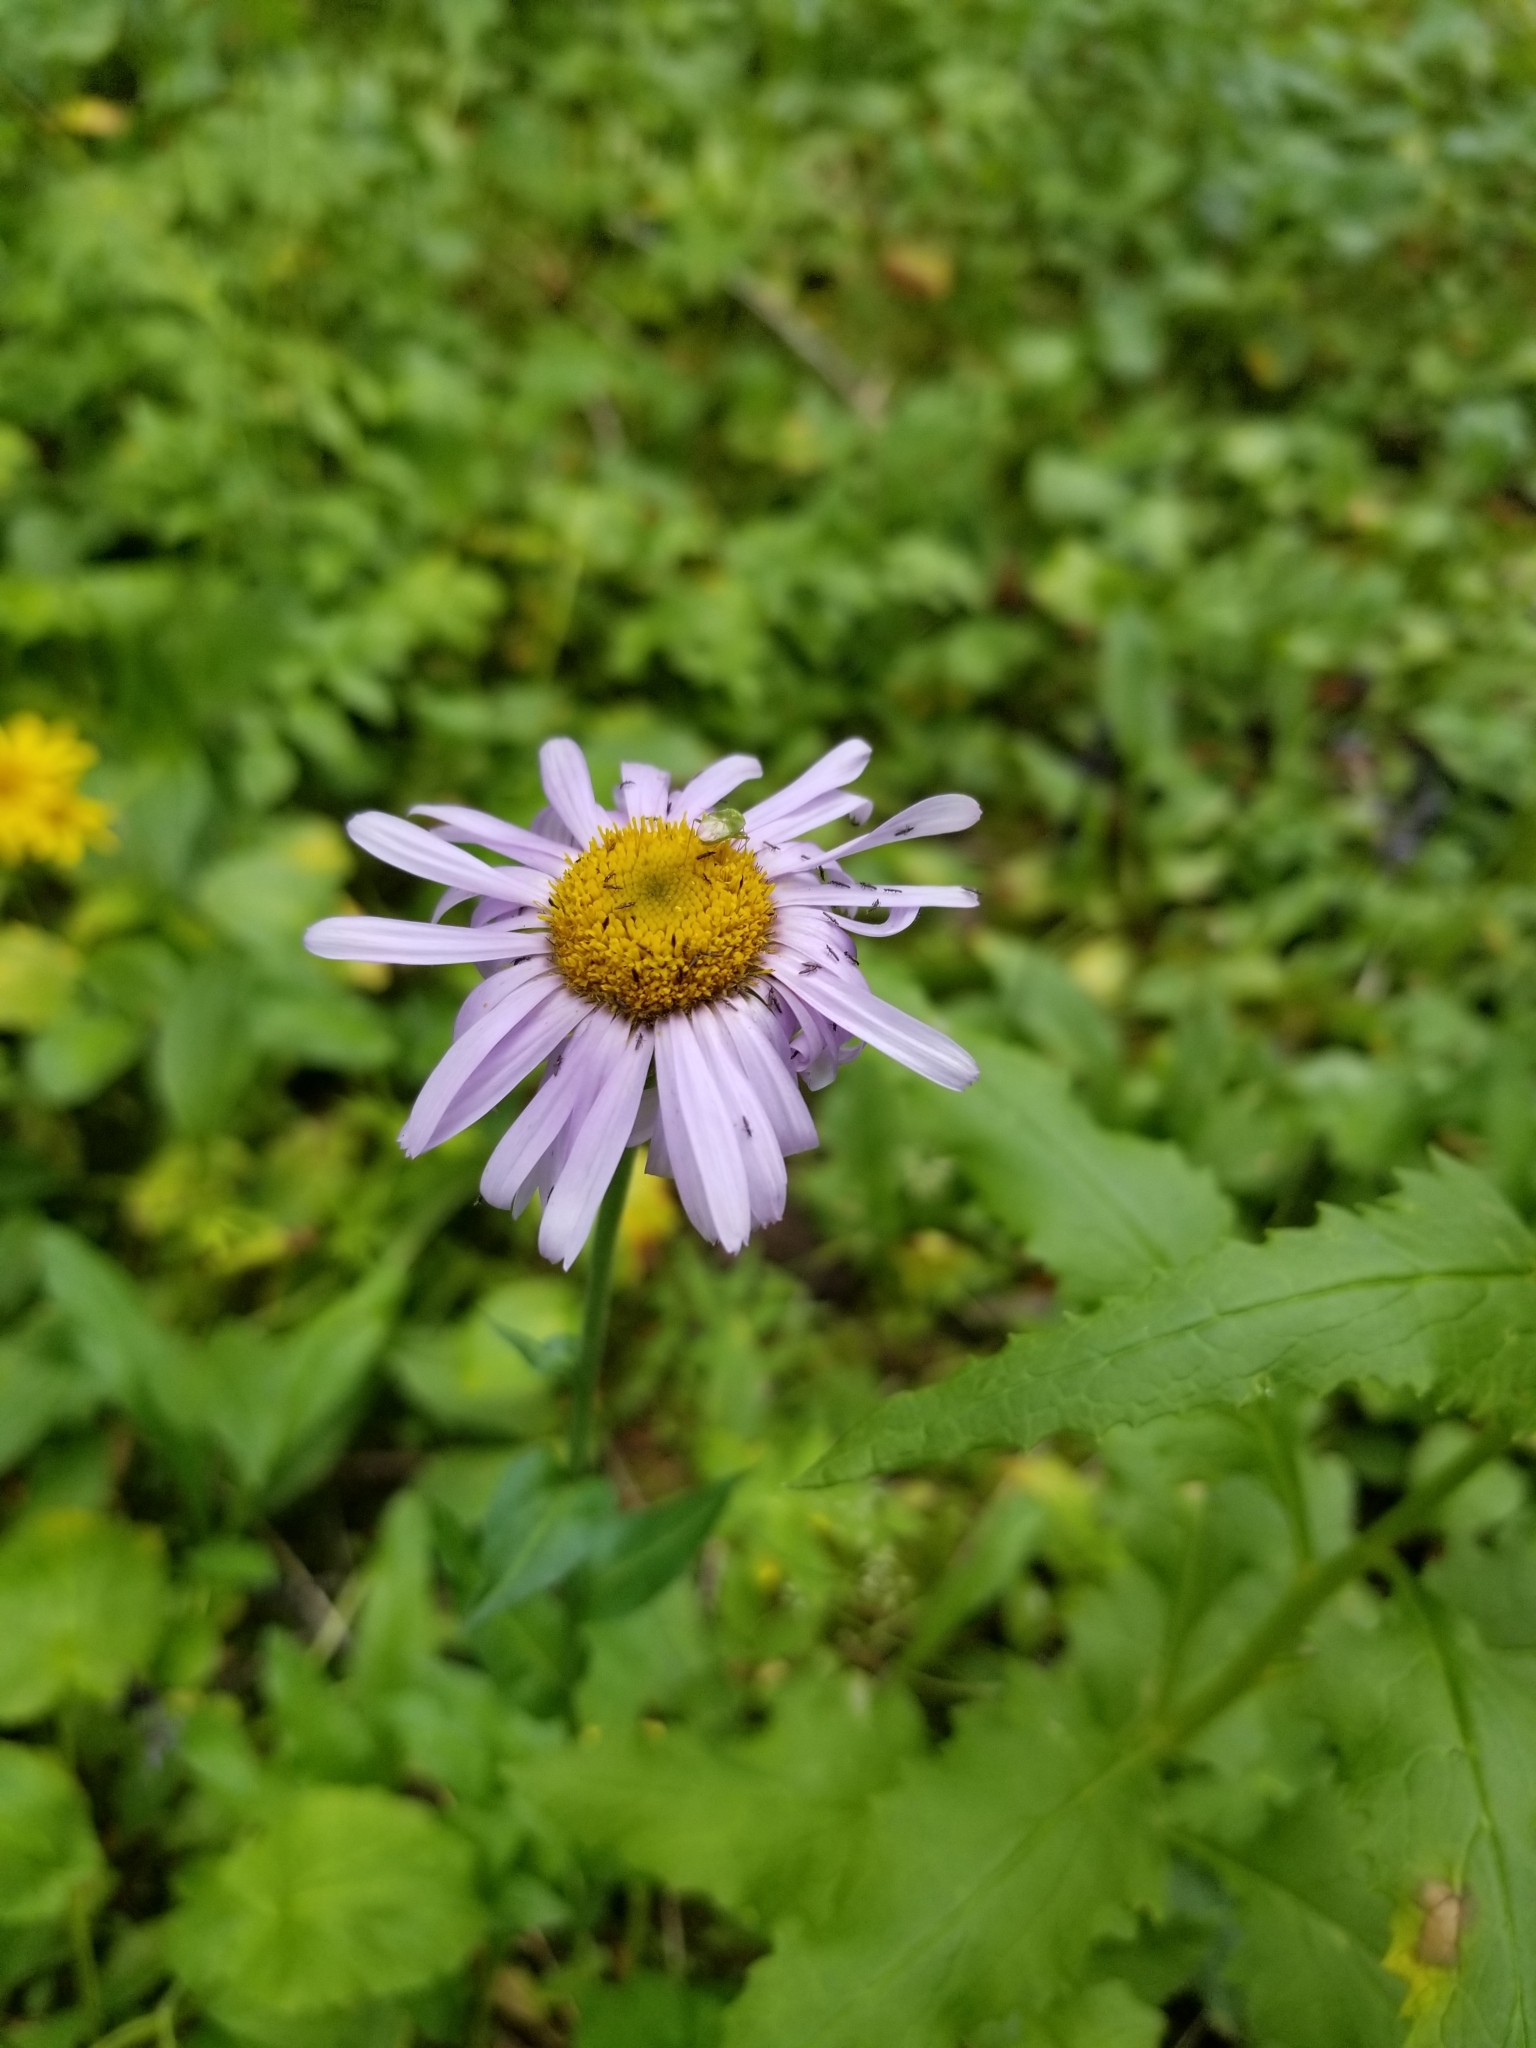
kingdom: Plantae
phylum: Tracheophyta
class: Magnoliopsida
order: Asterales
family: Asteraceae
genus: Erigeron
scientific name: Erigeron speciosus
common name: Aspen fleabane
